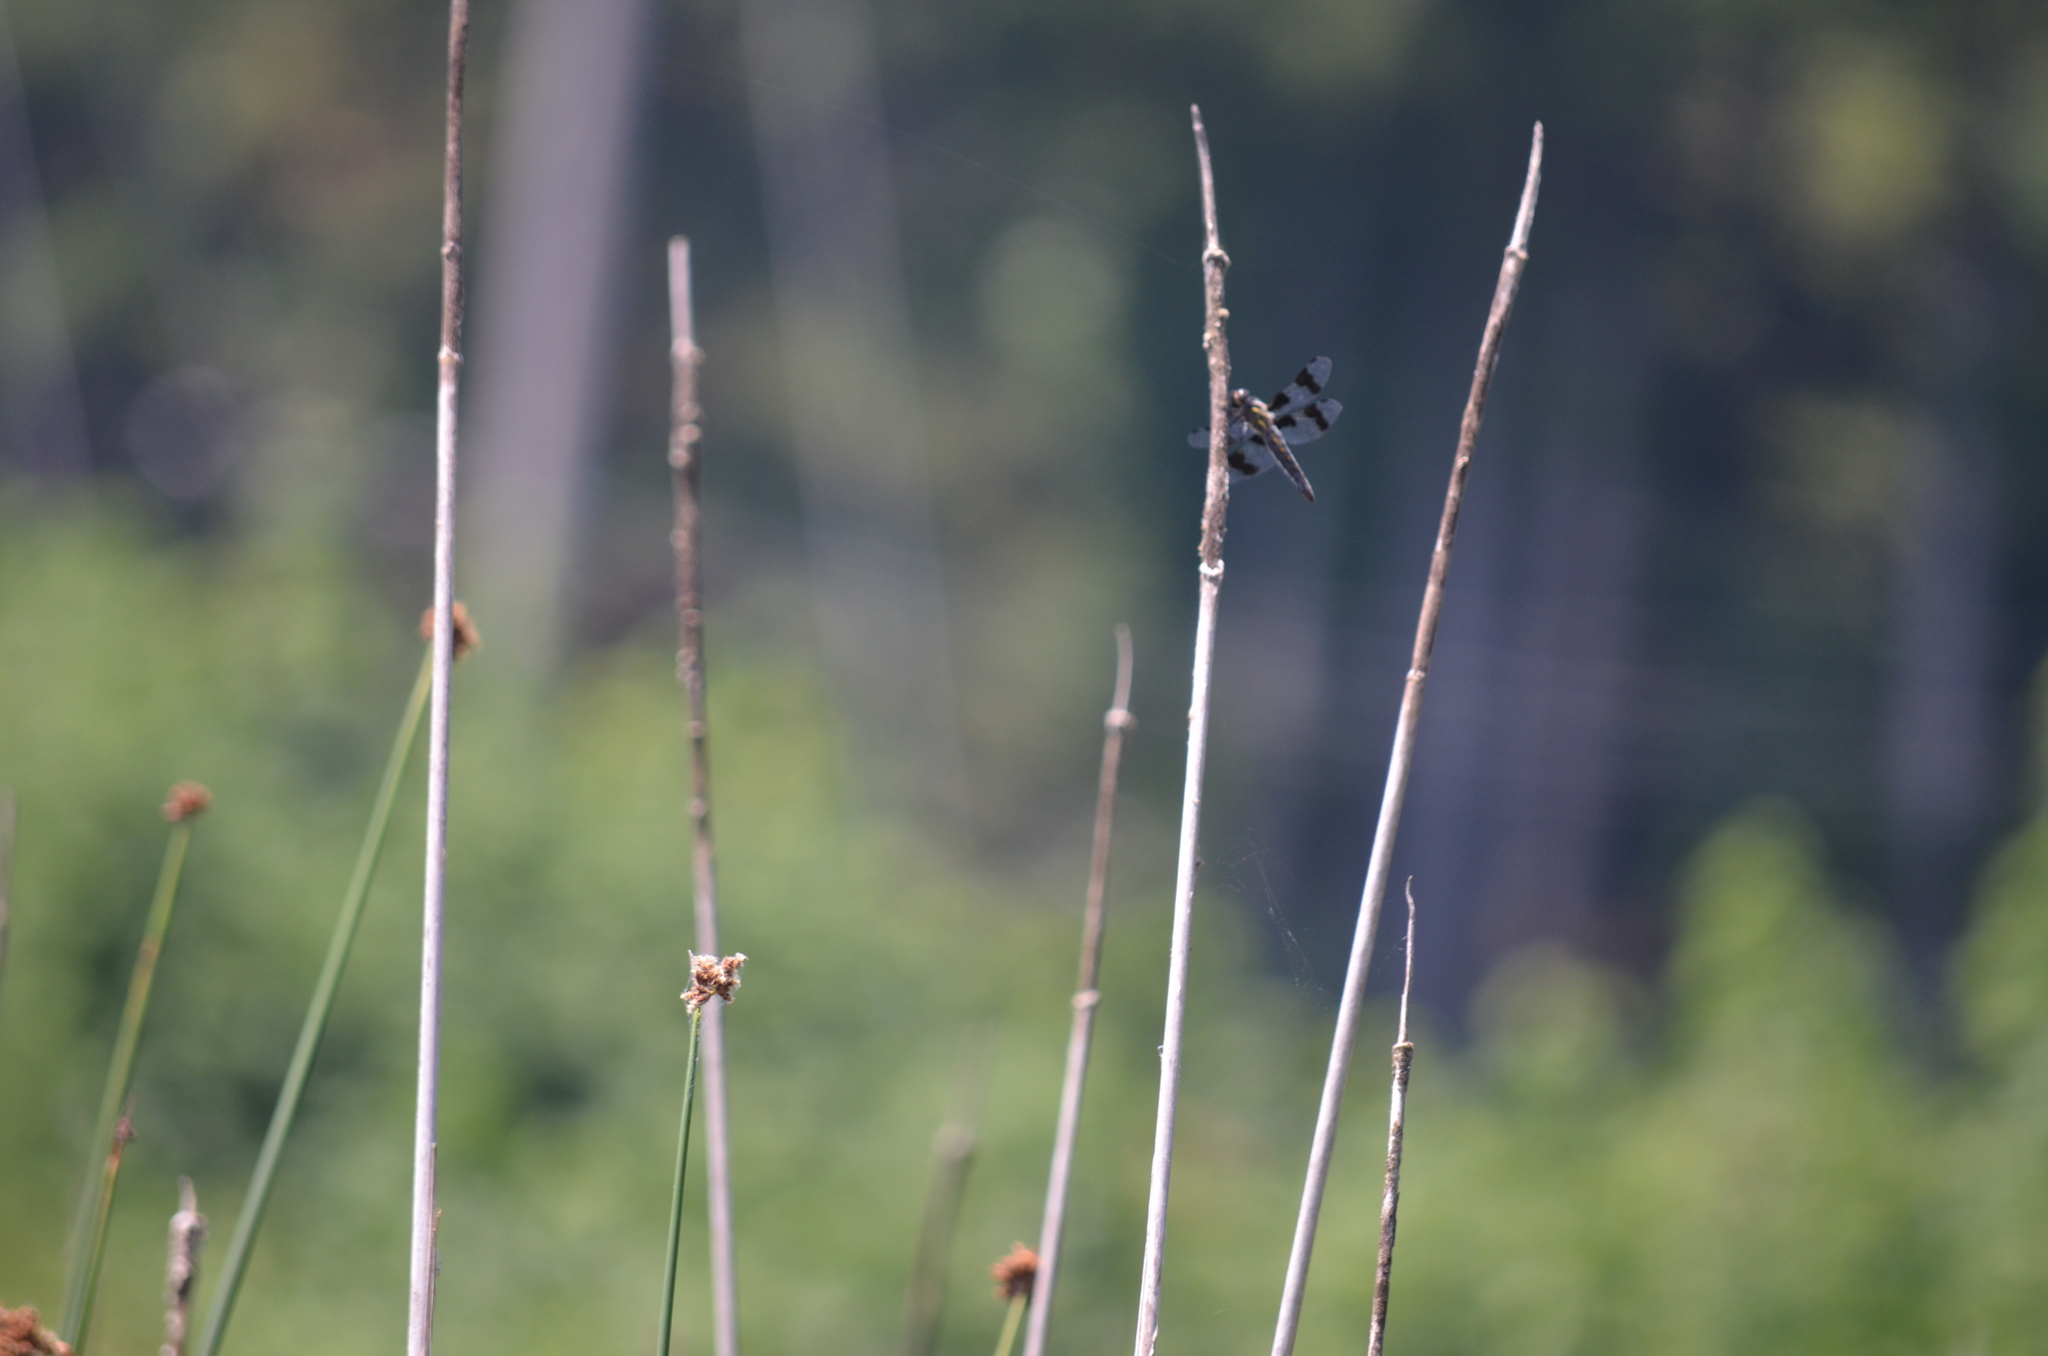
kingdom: Animalia
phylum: Arthropoda
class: Insecta
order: Odonata
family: Libellulidae
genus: Libellula
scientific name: Libellula forensis
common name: Eight-spotted skimmer
